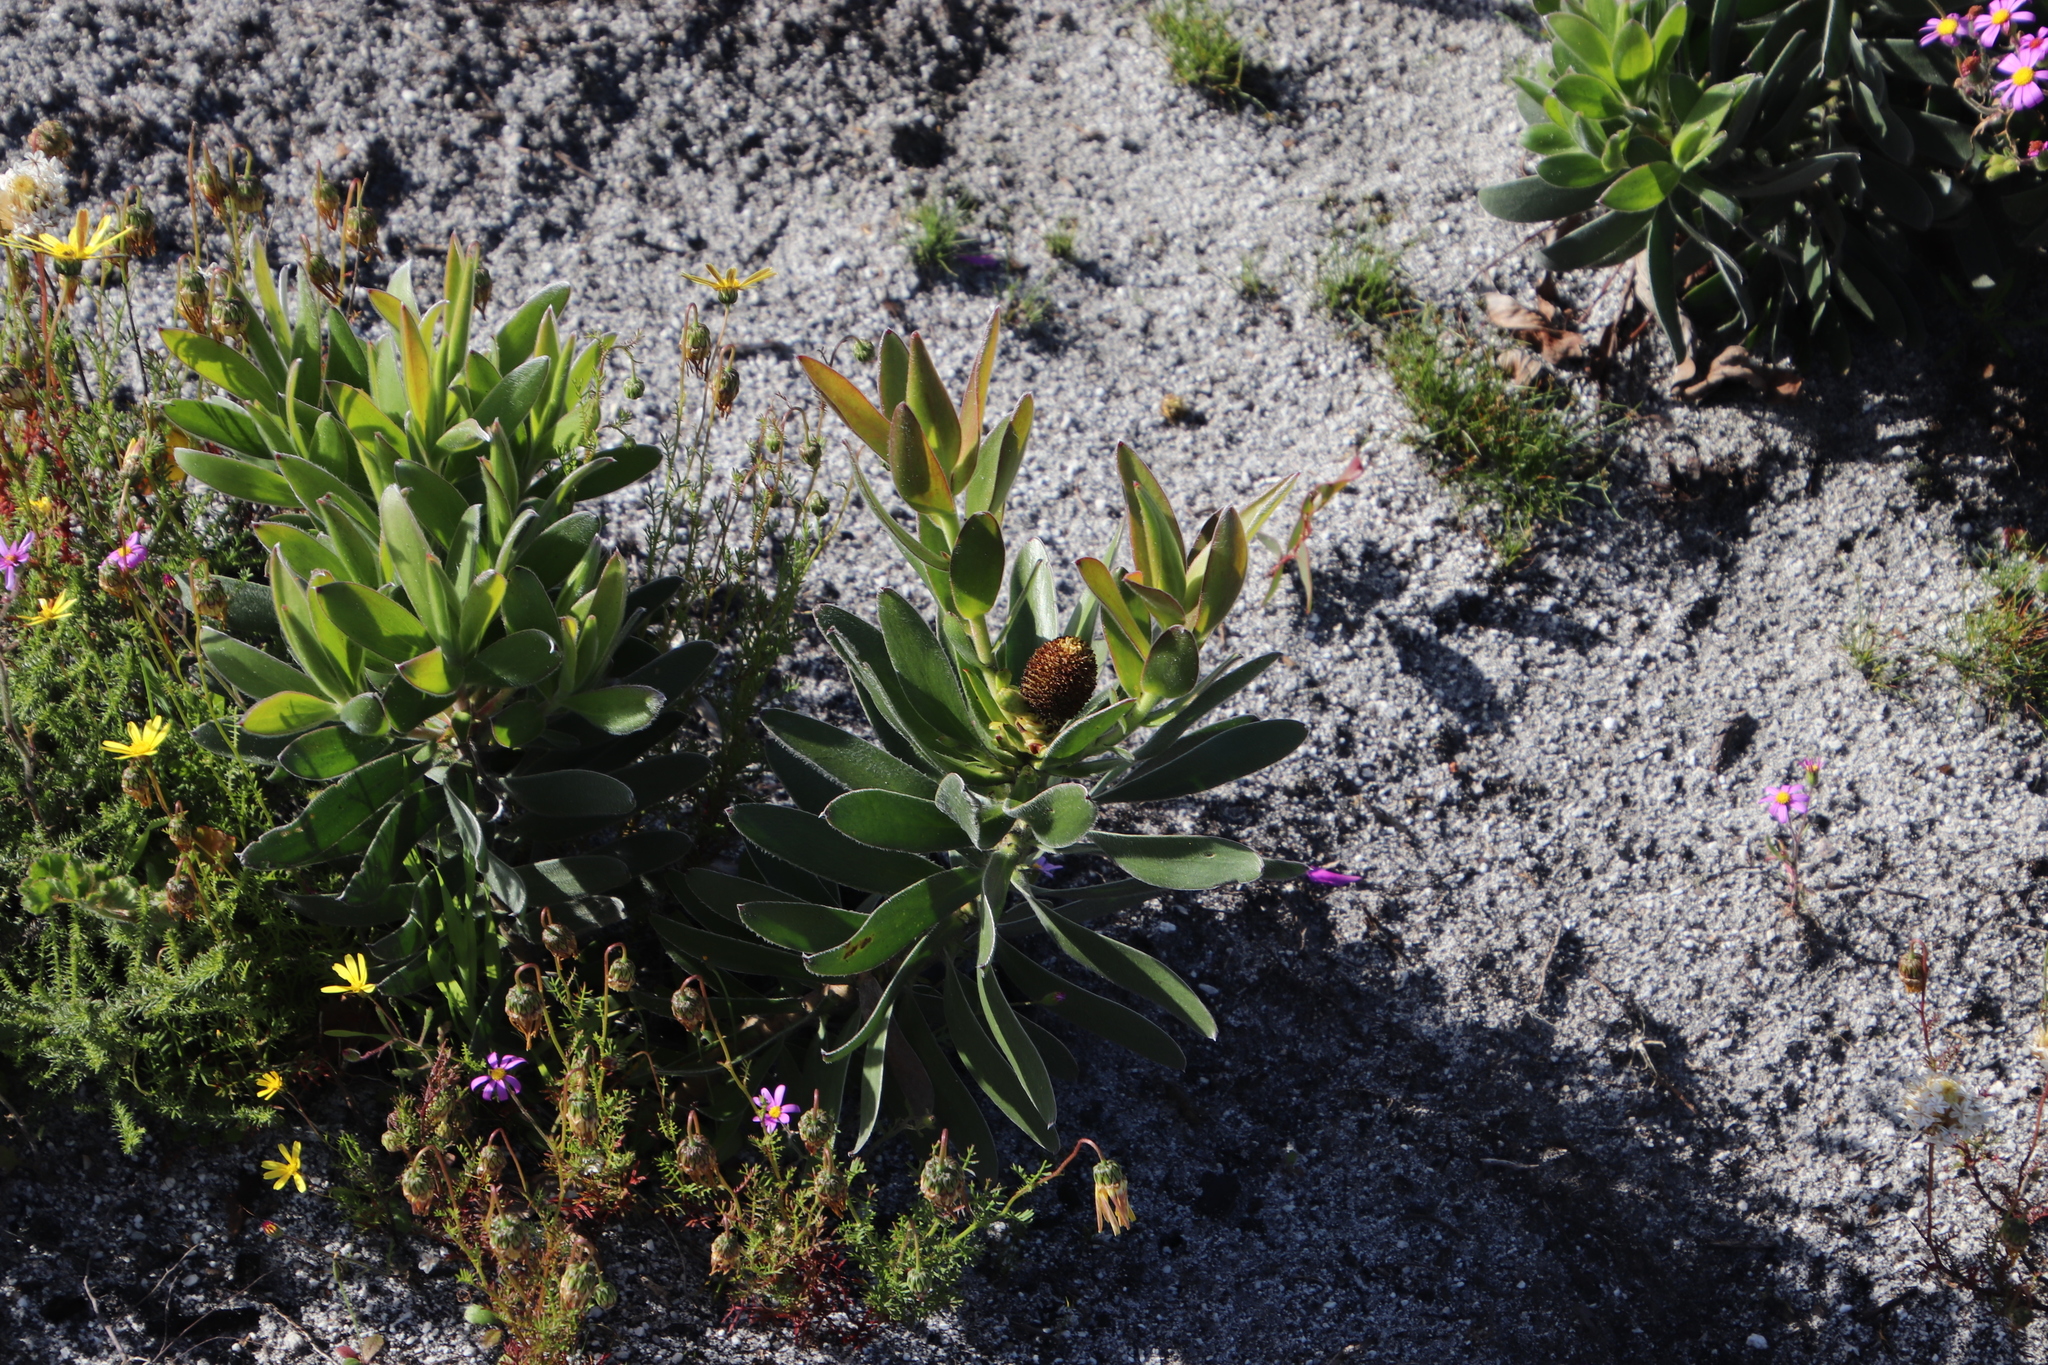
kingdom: Plantae
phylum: Tracheophyta
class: Magnoliopsida
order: Proteales
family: Proteaceae
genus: Leucadendron
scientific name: Leucadendron laureolum
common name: Golden sunshinebush
